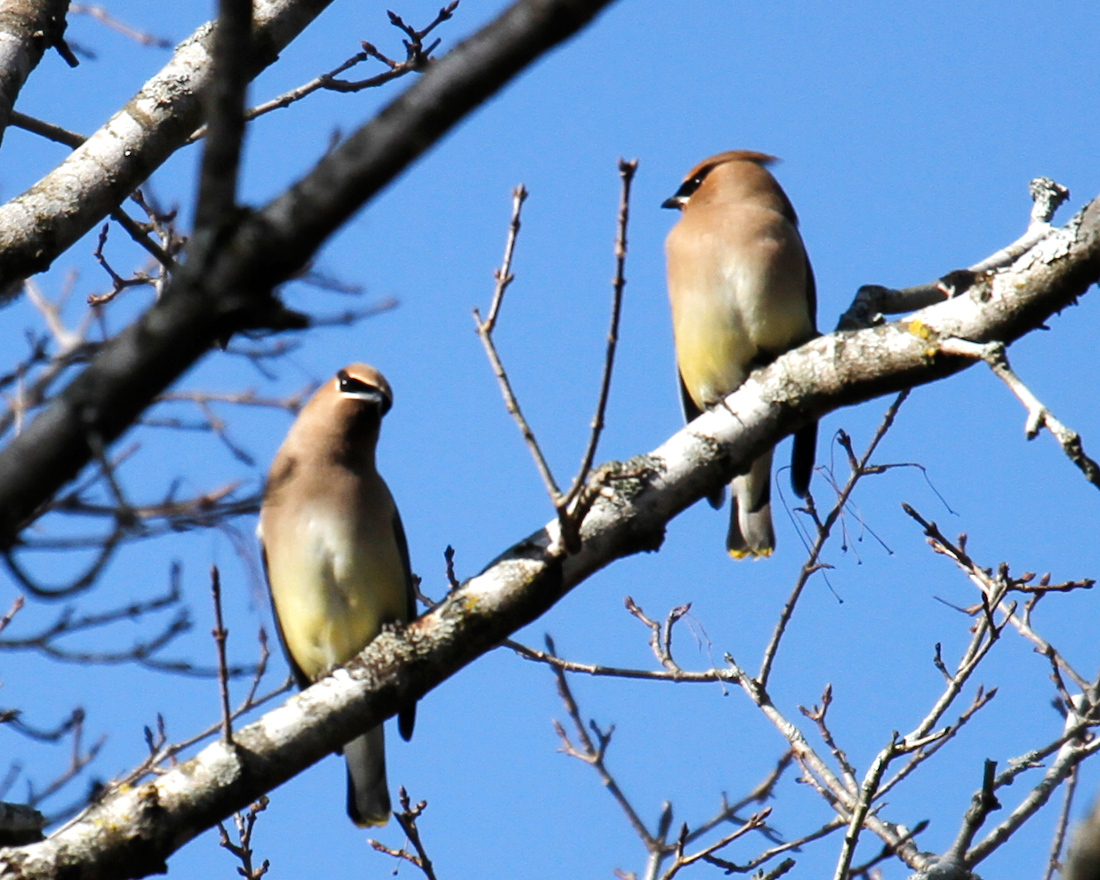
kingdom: Animalia
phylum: Chordata
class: Aves
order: Passeriformes
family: Bombycillidae
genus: Bombycilla
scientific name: Bombycilla cedrorum
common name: Cedar waxwing
